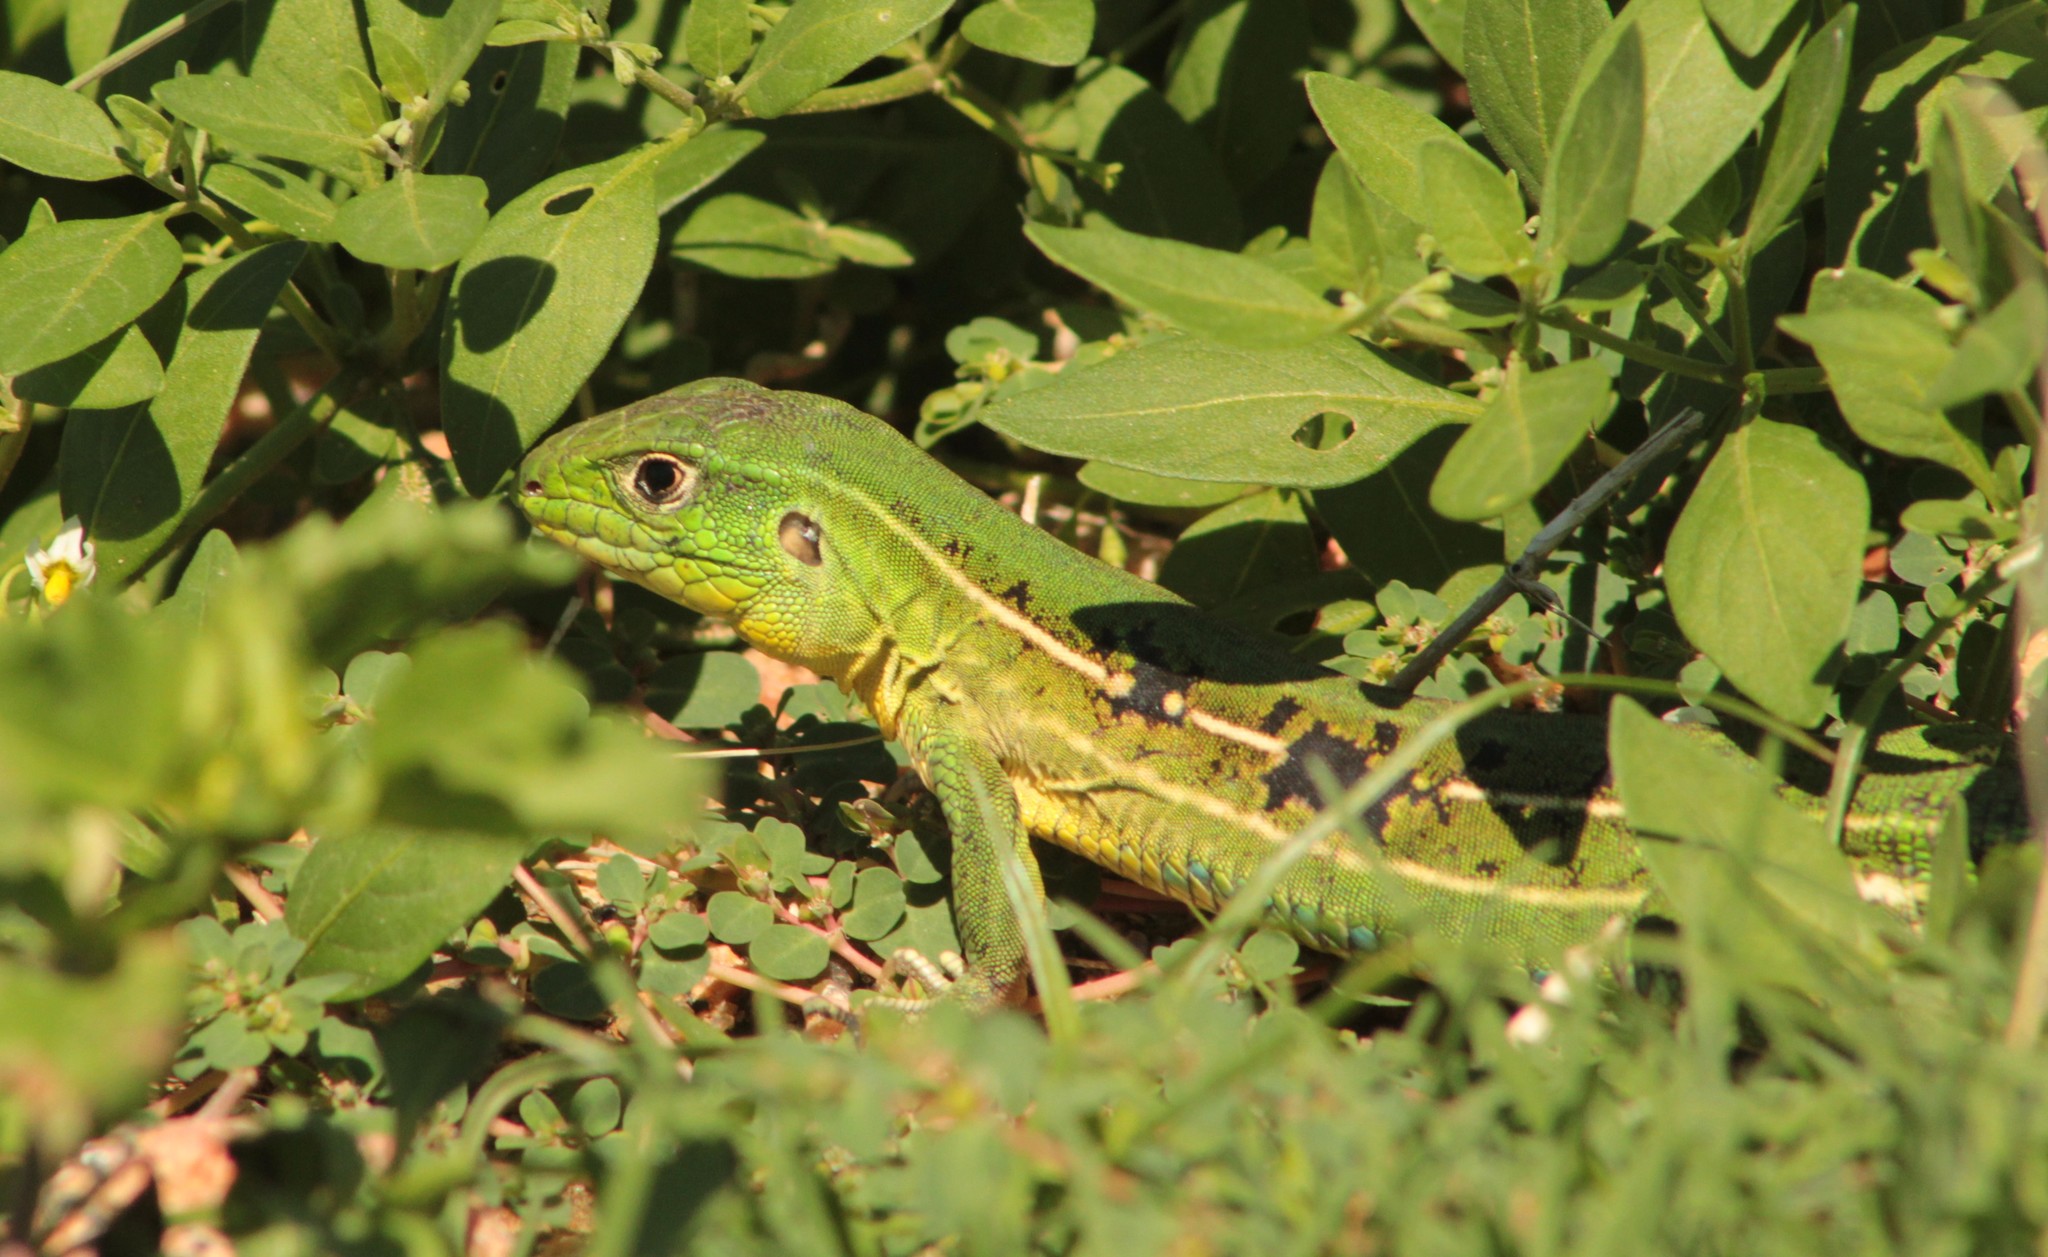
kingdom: Animalia
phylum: Chordata
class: Squamata
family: Teiidae
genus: Teius
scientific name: Teius oculatus
